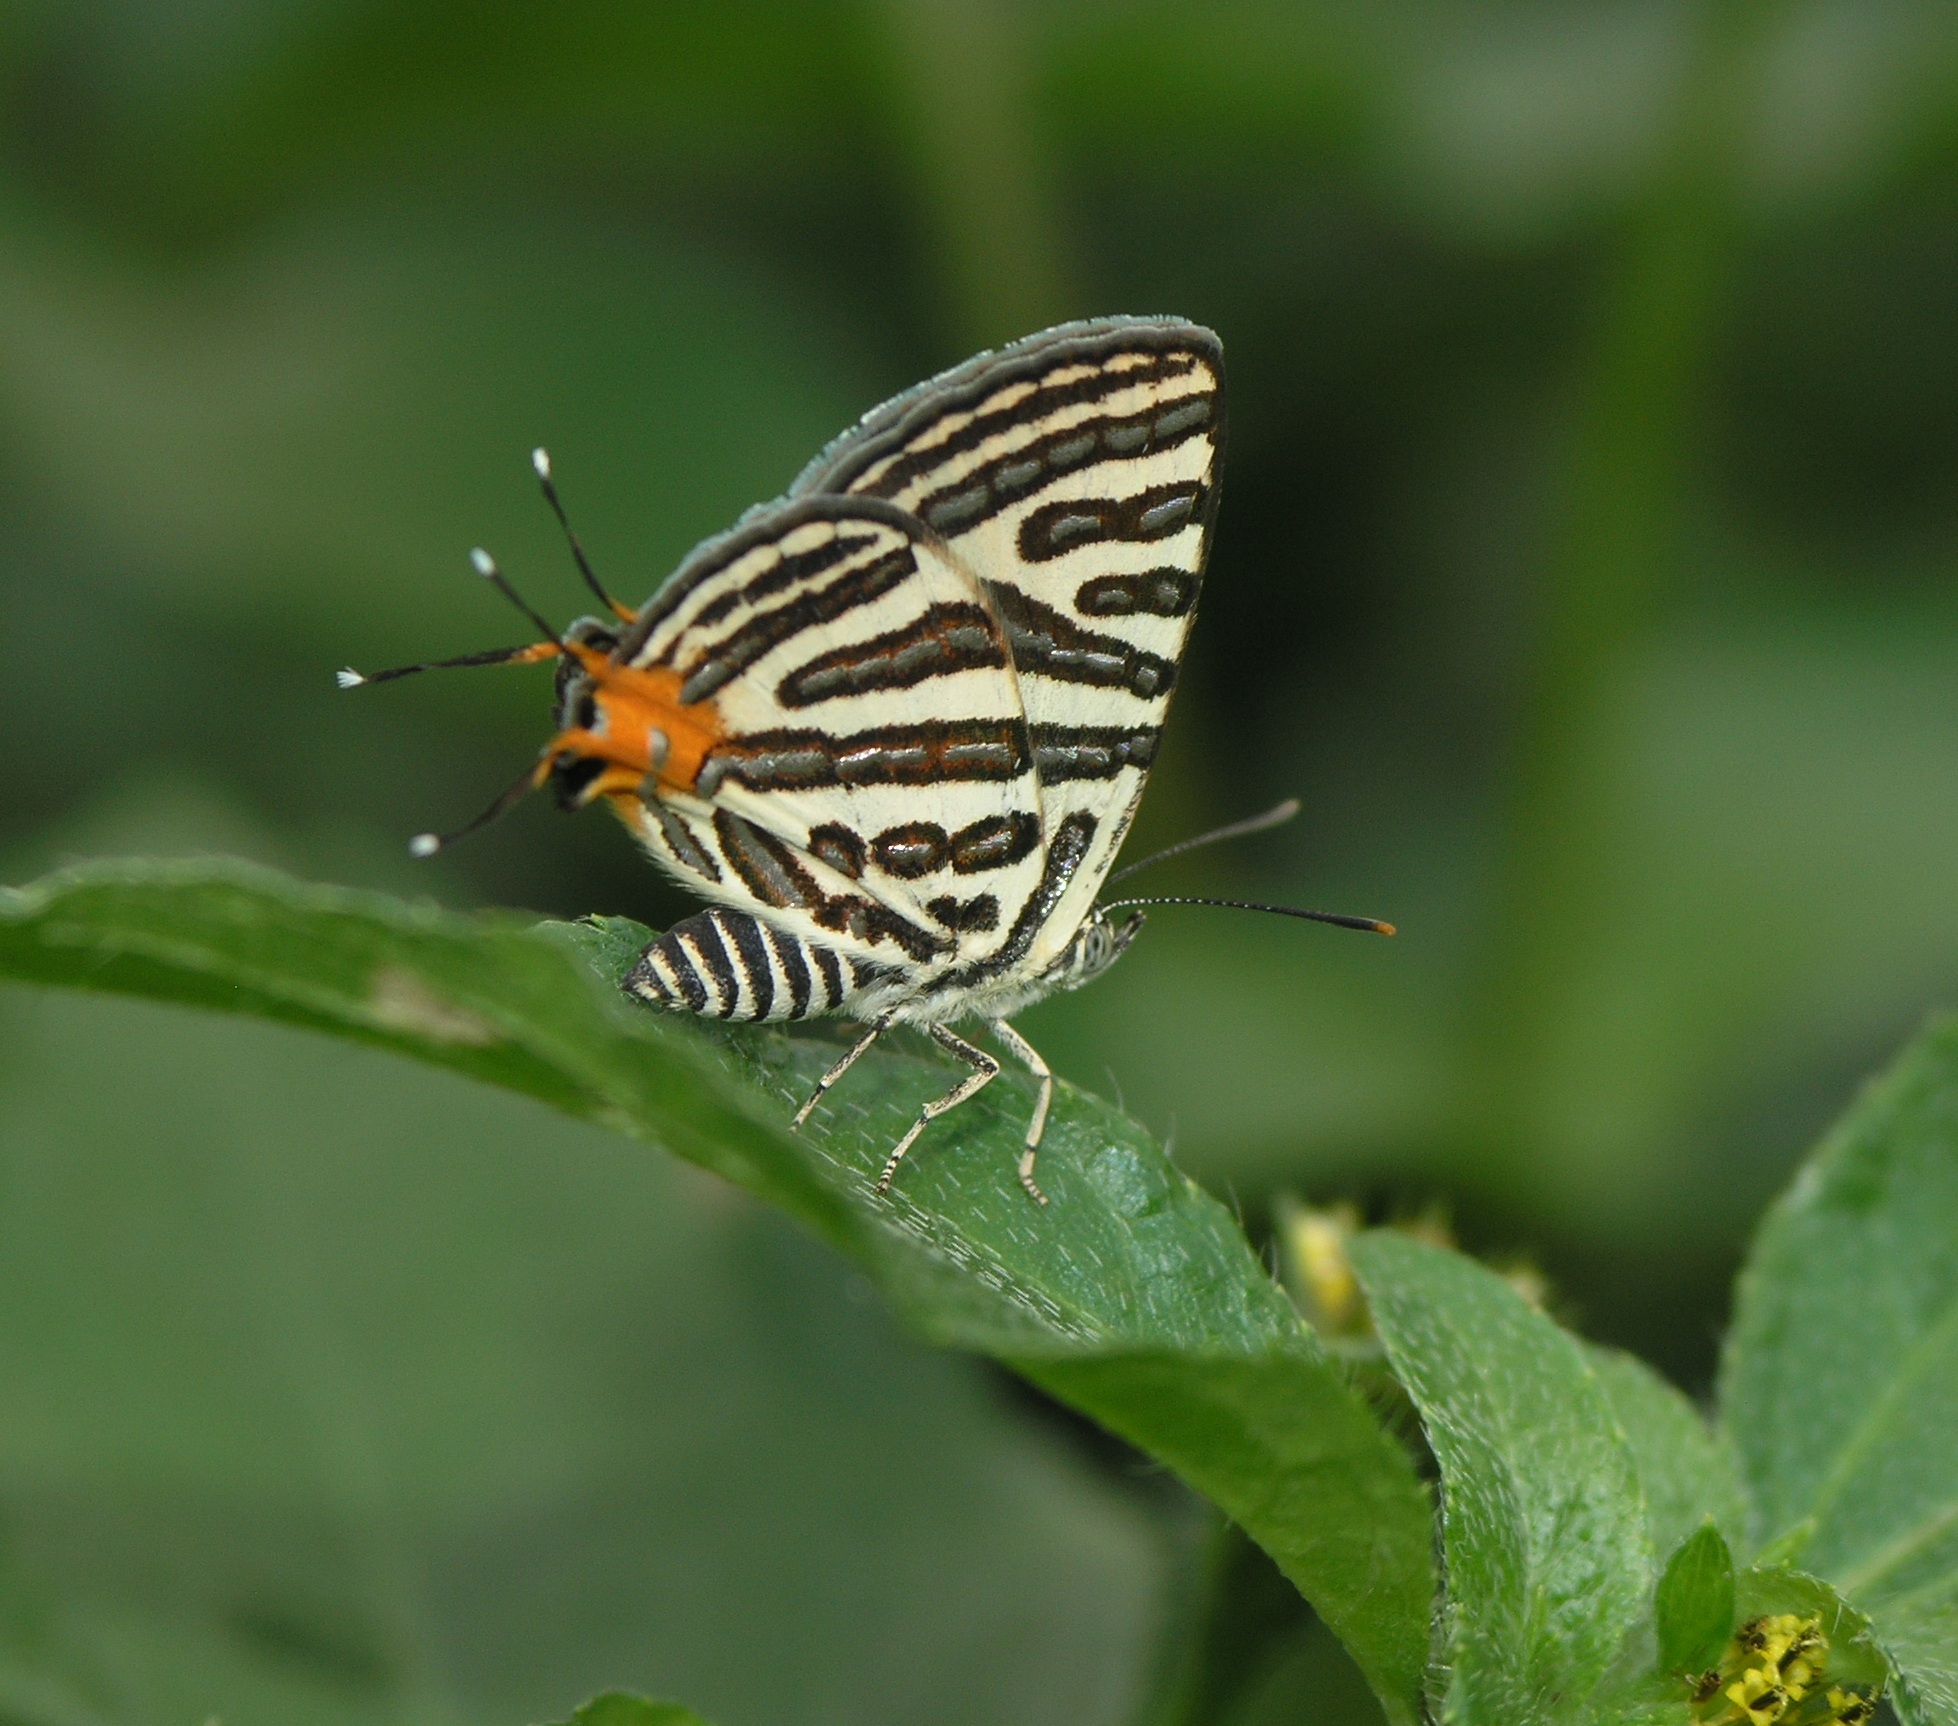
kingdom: Animalia
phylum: Arthropoda
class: Insecta
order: Lepidoptera
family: Lycaenidae
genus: Cigaritis
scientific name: Cigaritis syama
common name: Club silverline
